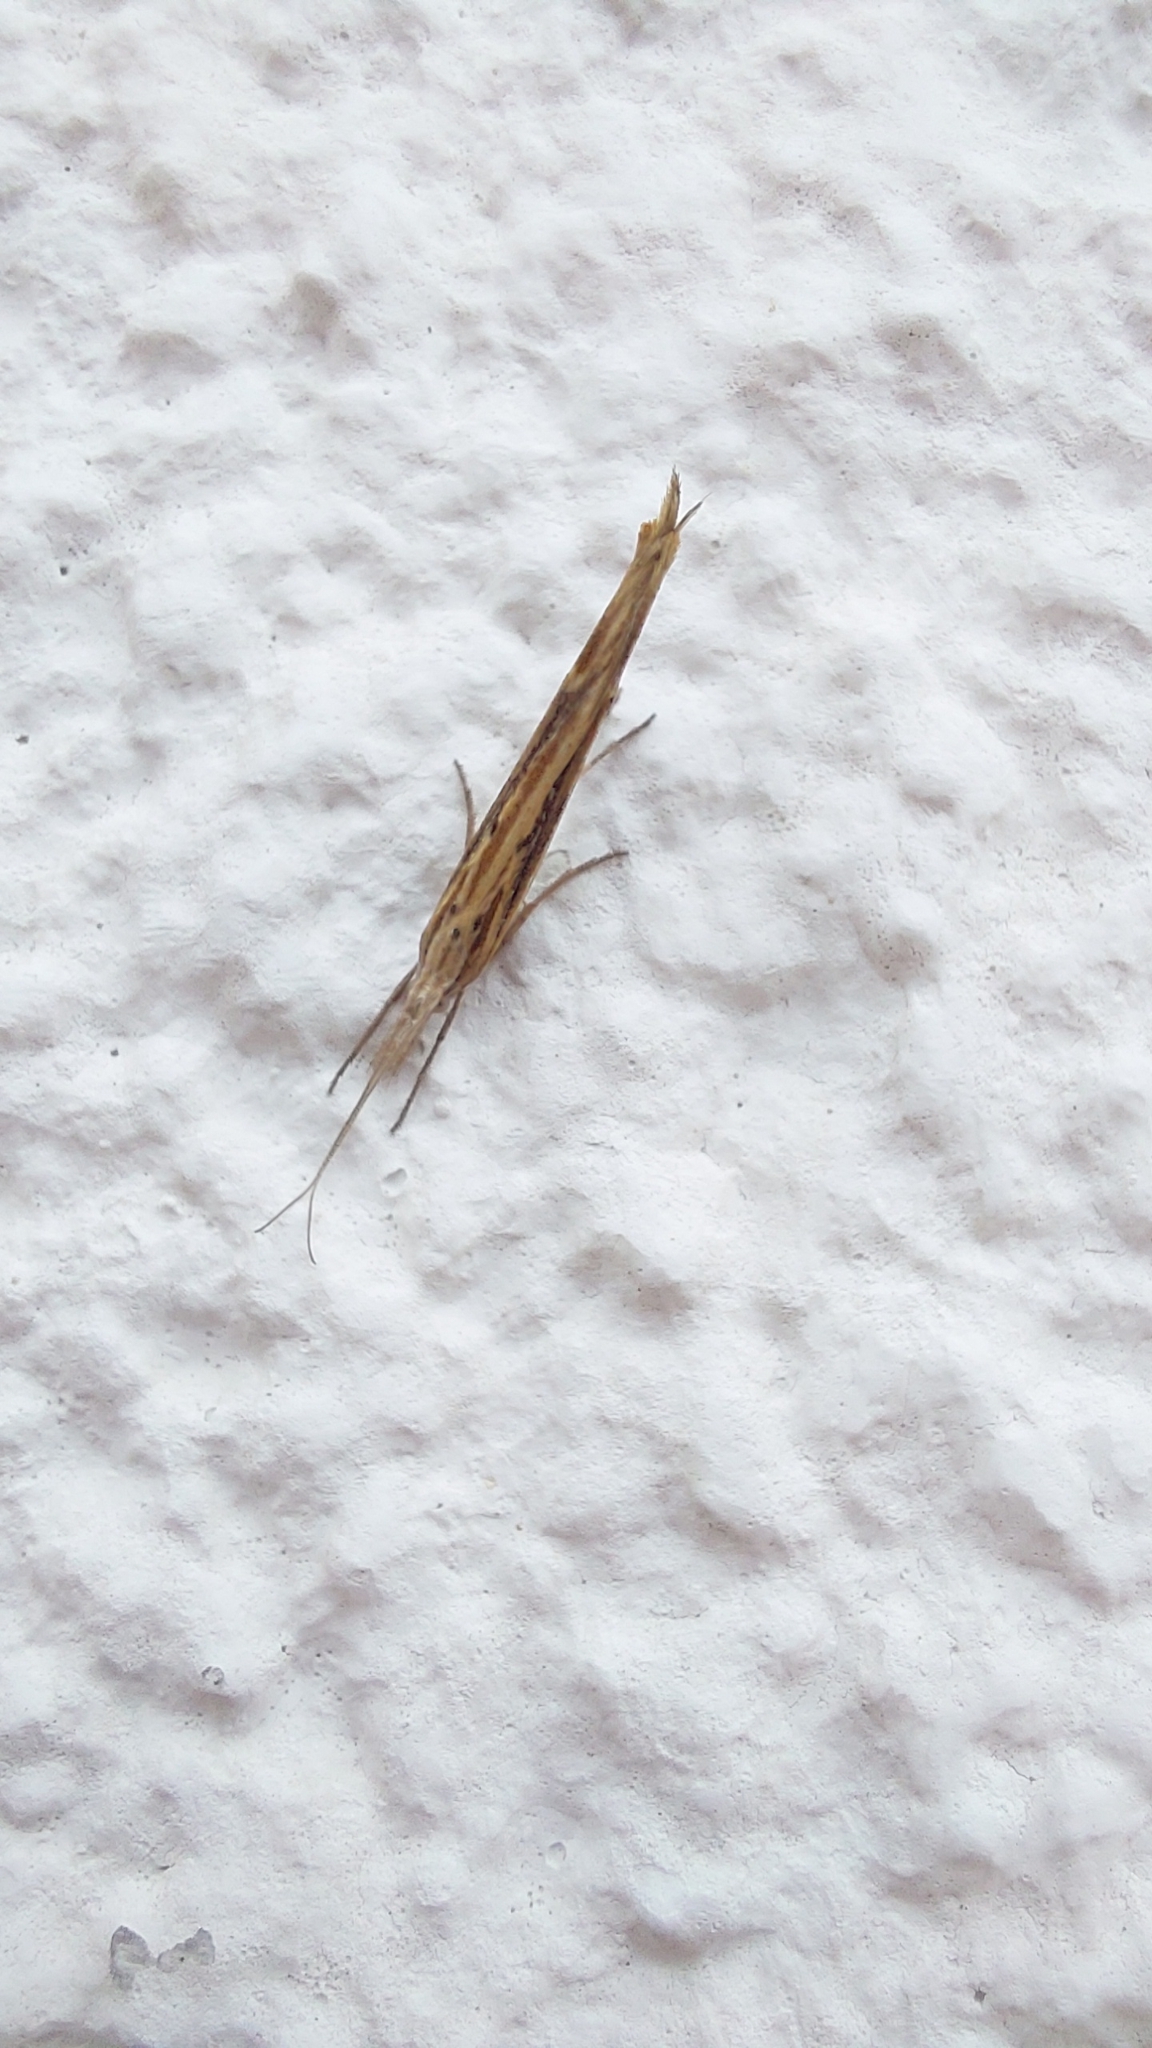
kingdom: Animalia
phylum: Arthropoda
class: Insecta
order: Lepidoptera
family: Ypsolophidae
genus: Ypsolopha
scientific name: Ypsolopha mucronella
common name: Spindle smudge
